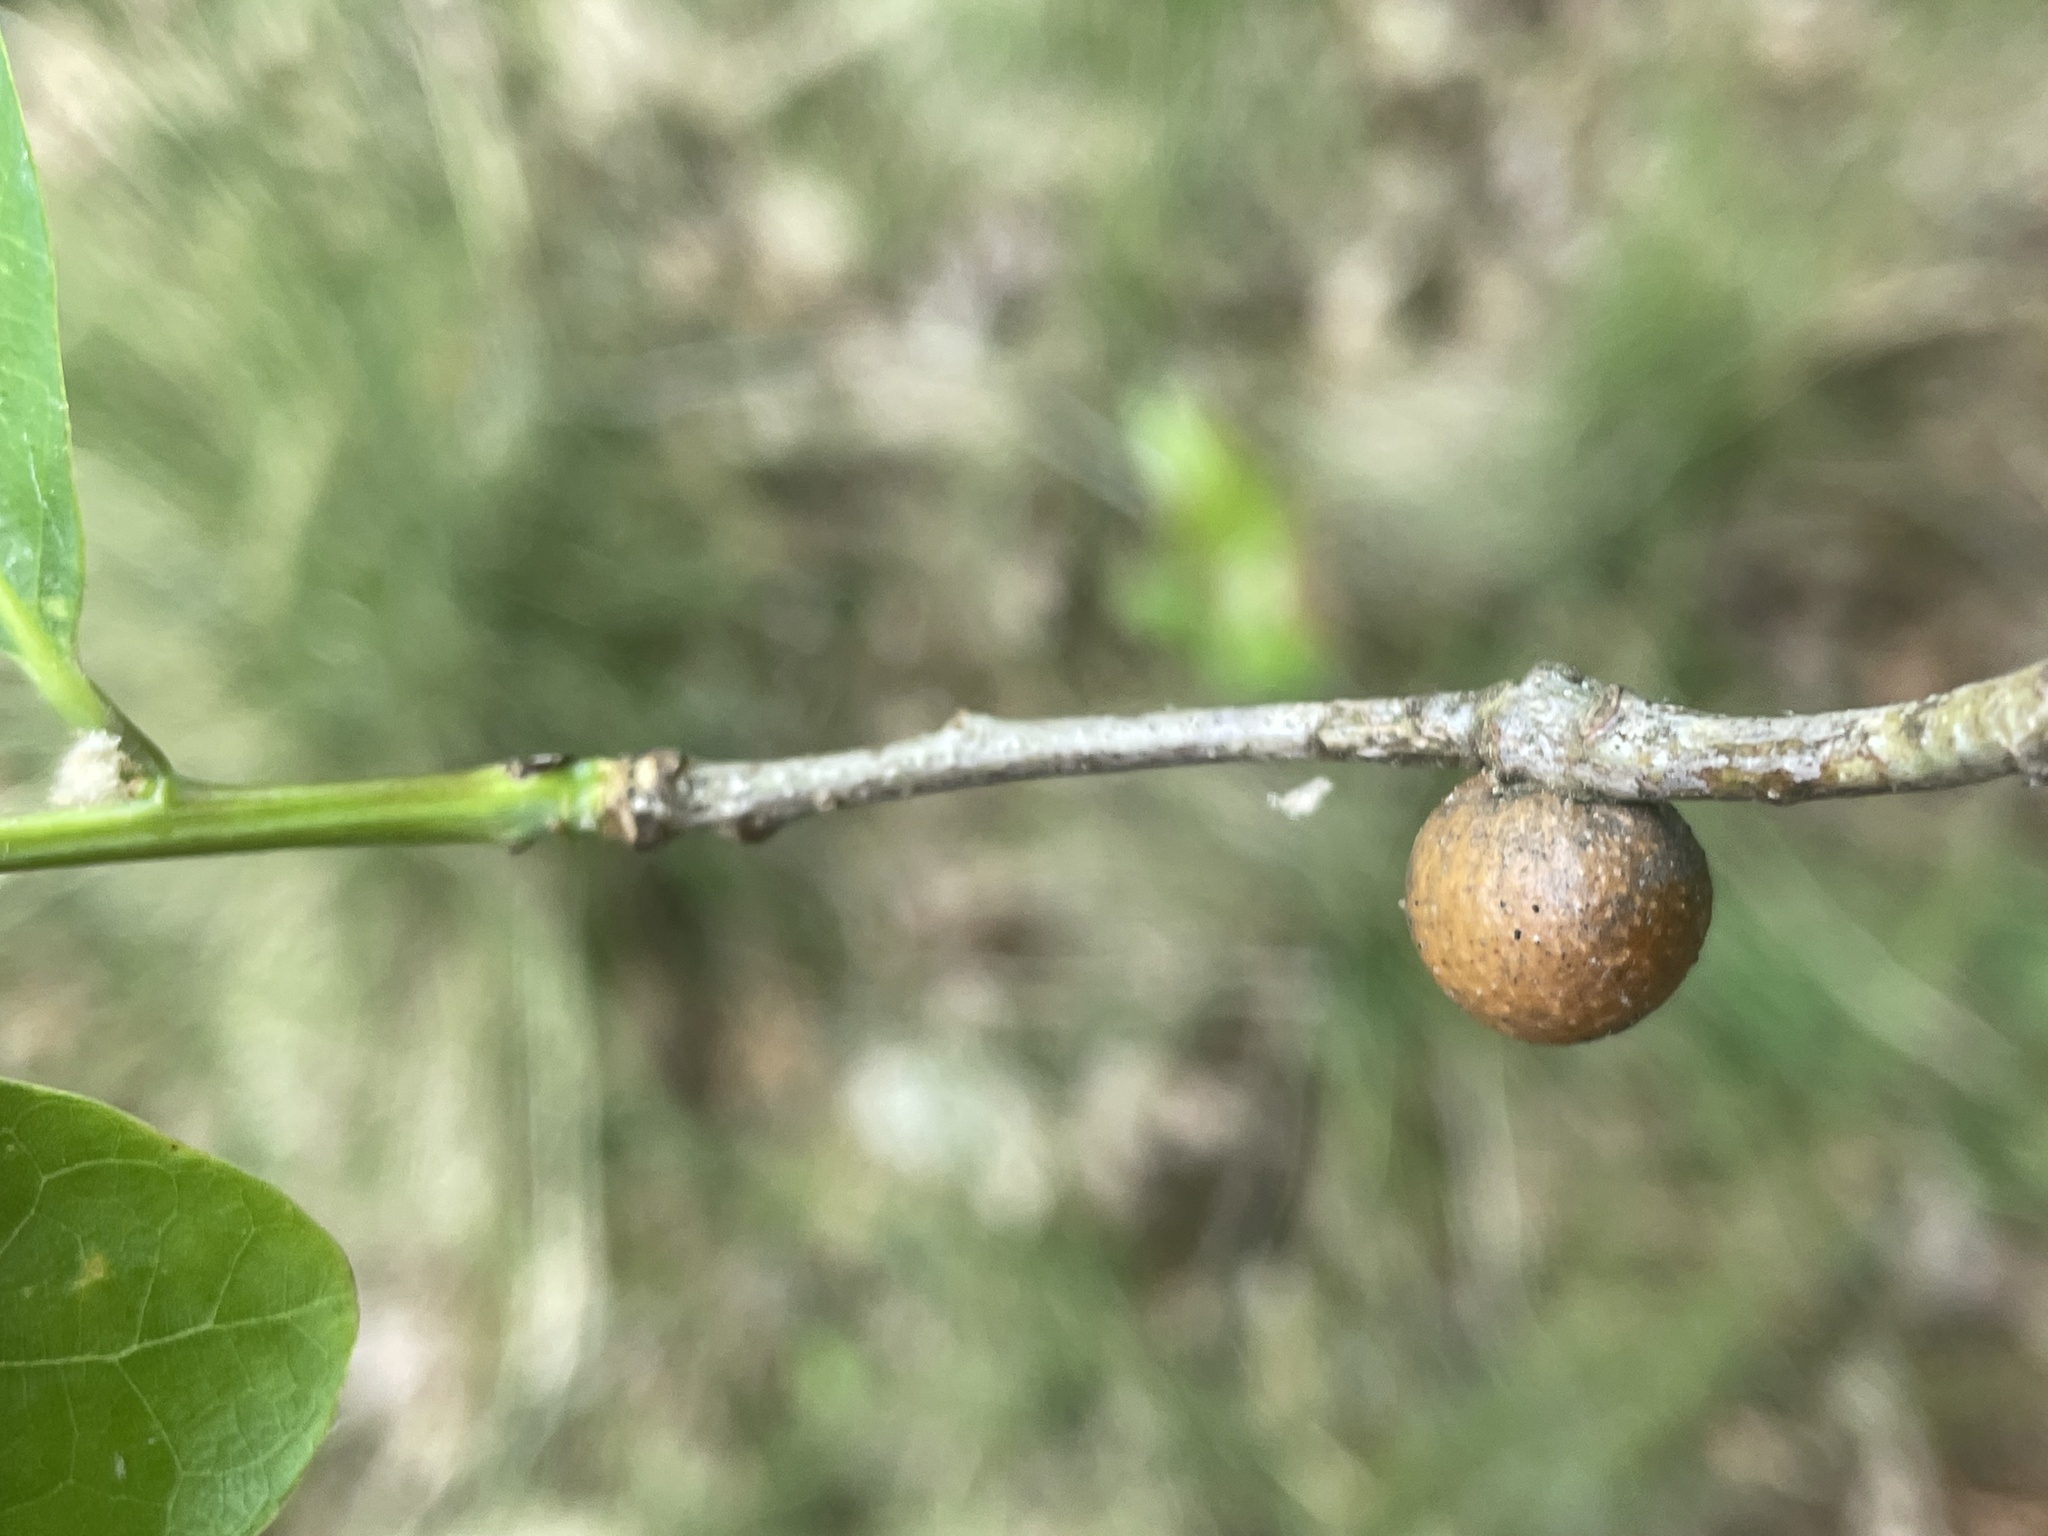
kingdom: Animalia
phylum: Arthropoda
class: Insecta
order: Hymenoptera
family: Cynipidae
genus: Disholcaspis
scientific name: Disholcaspis quercusglobulus
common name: Round bullet gall wasp
